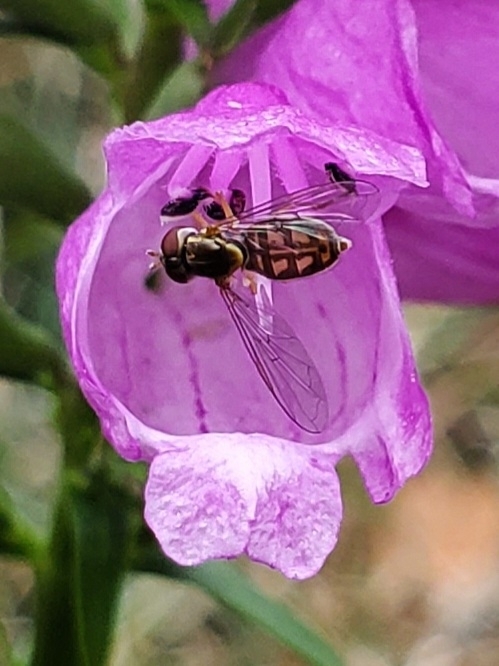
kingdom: Animalia
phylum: Arthropoda
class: Insecta
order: Diptera
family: Syrphidae
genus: Toxomerus
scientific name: Toxomerus marginatus
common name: Syrphid fly
